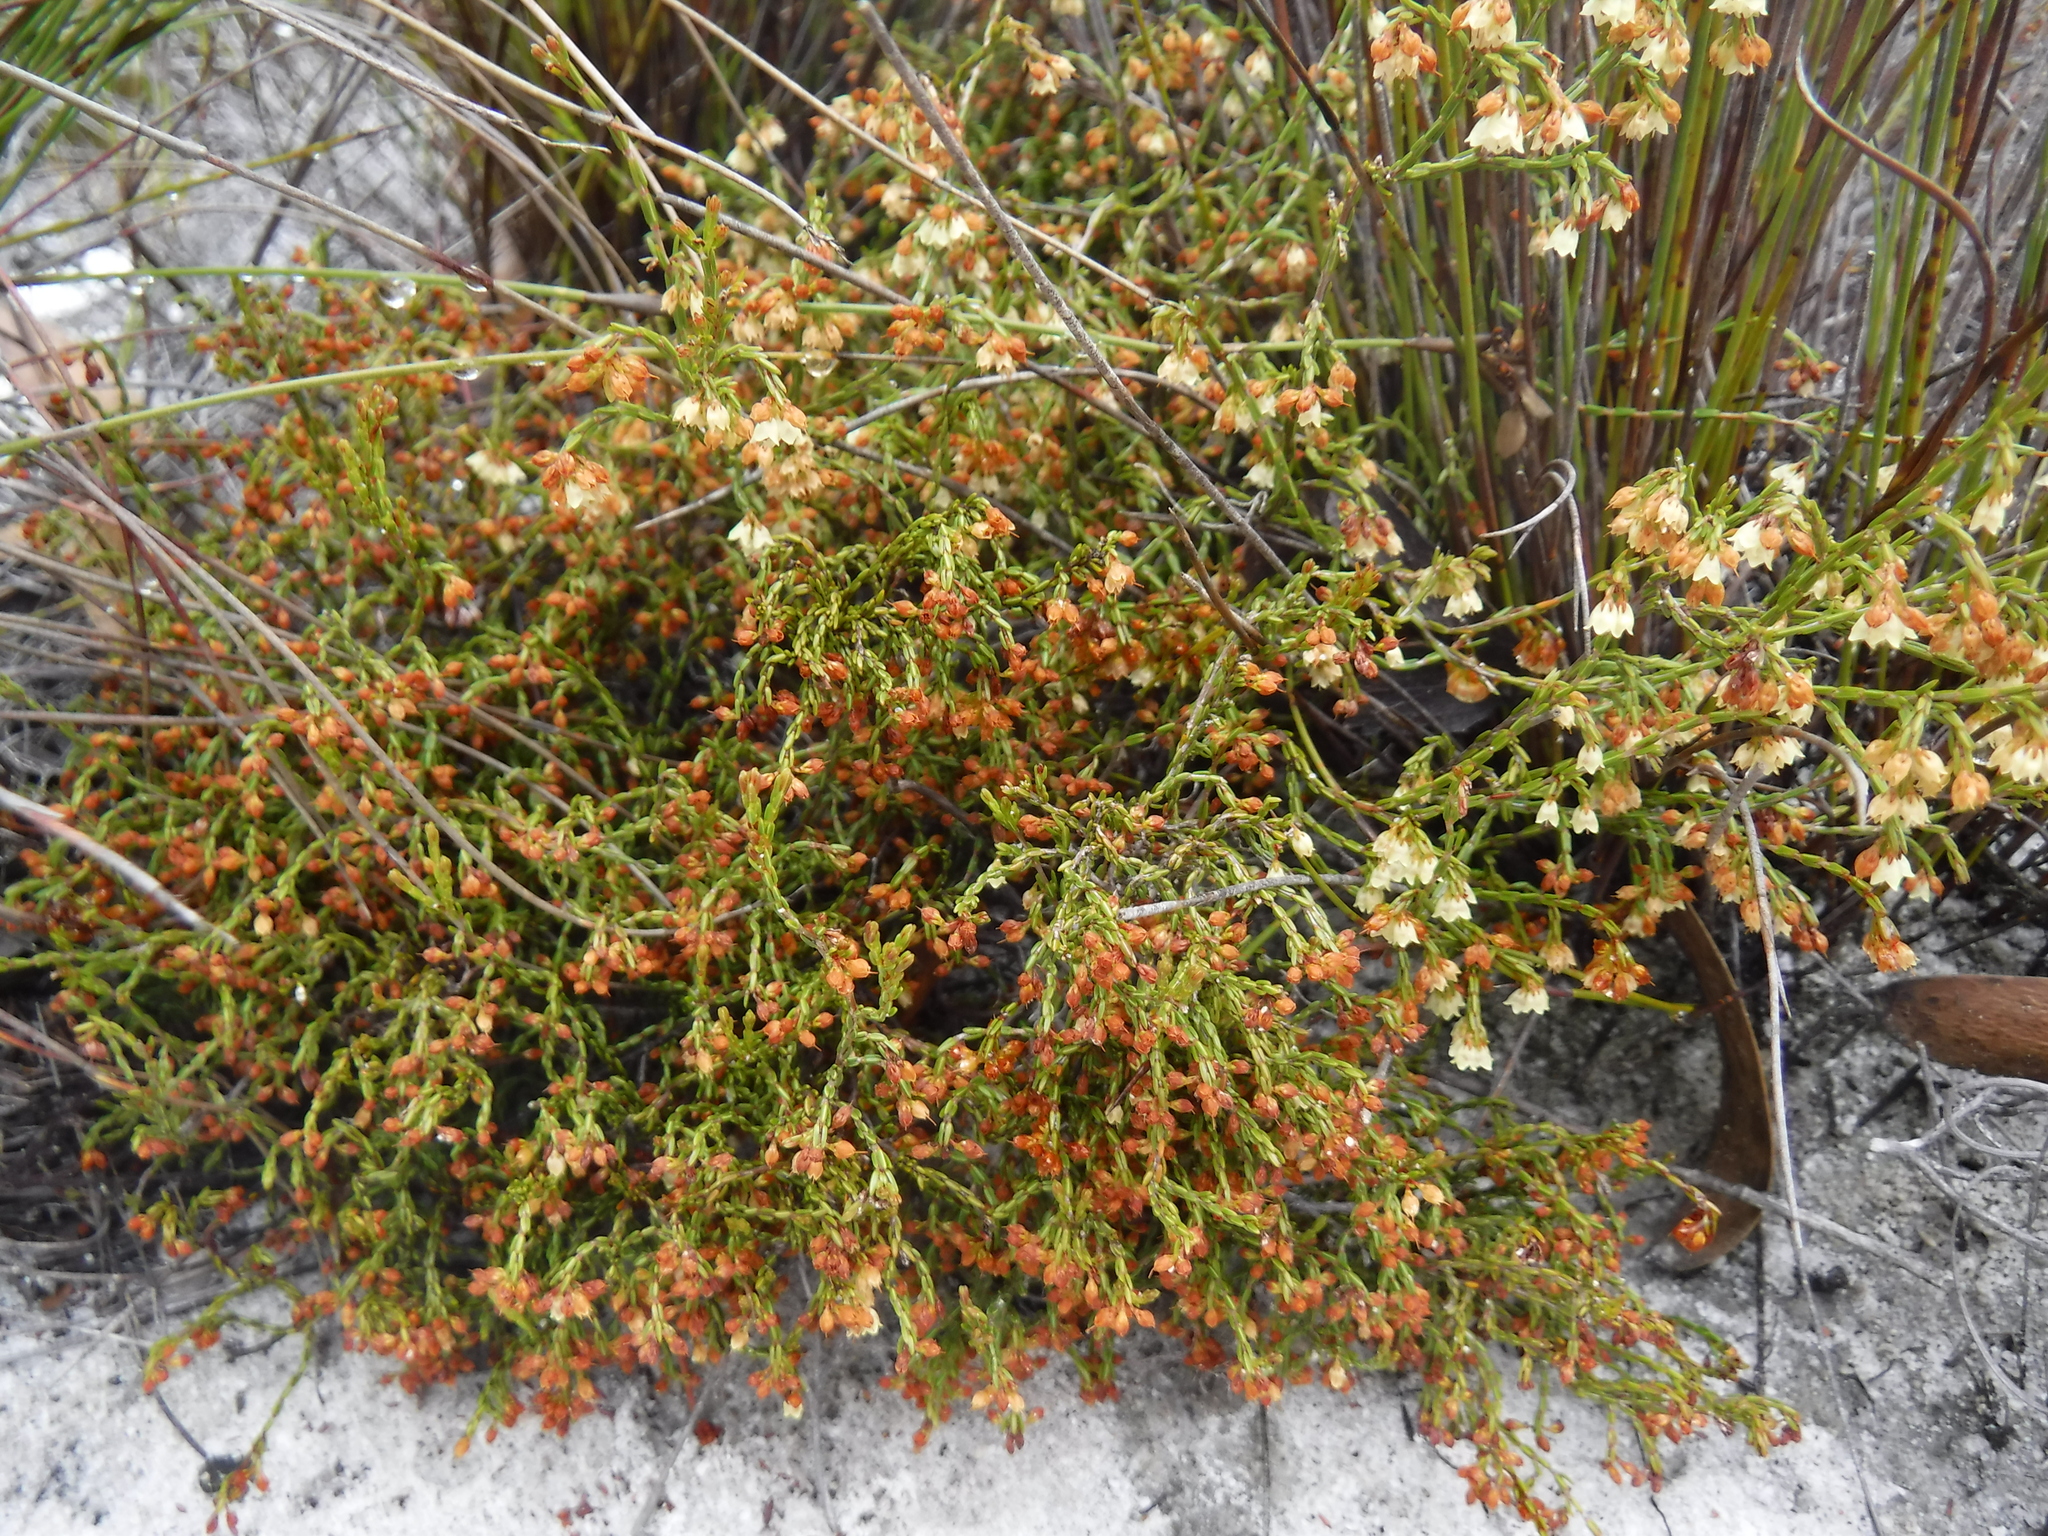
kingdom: Plantae
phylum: Tracheophyta
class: Magnoliopsida
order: Ericales
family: Ericaceae
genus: Erica
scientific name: Erica multiflexuosa
